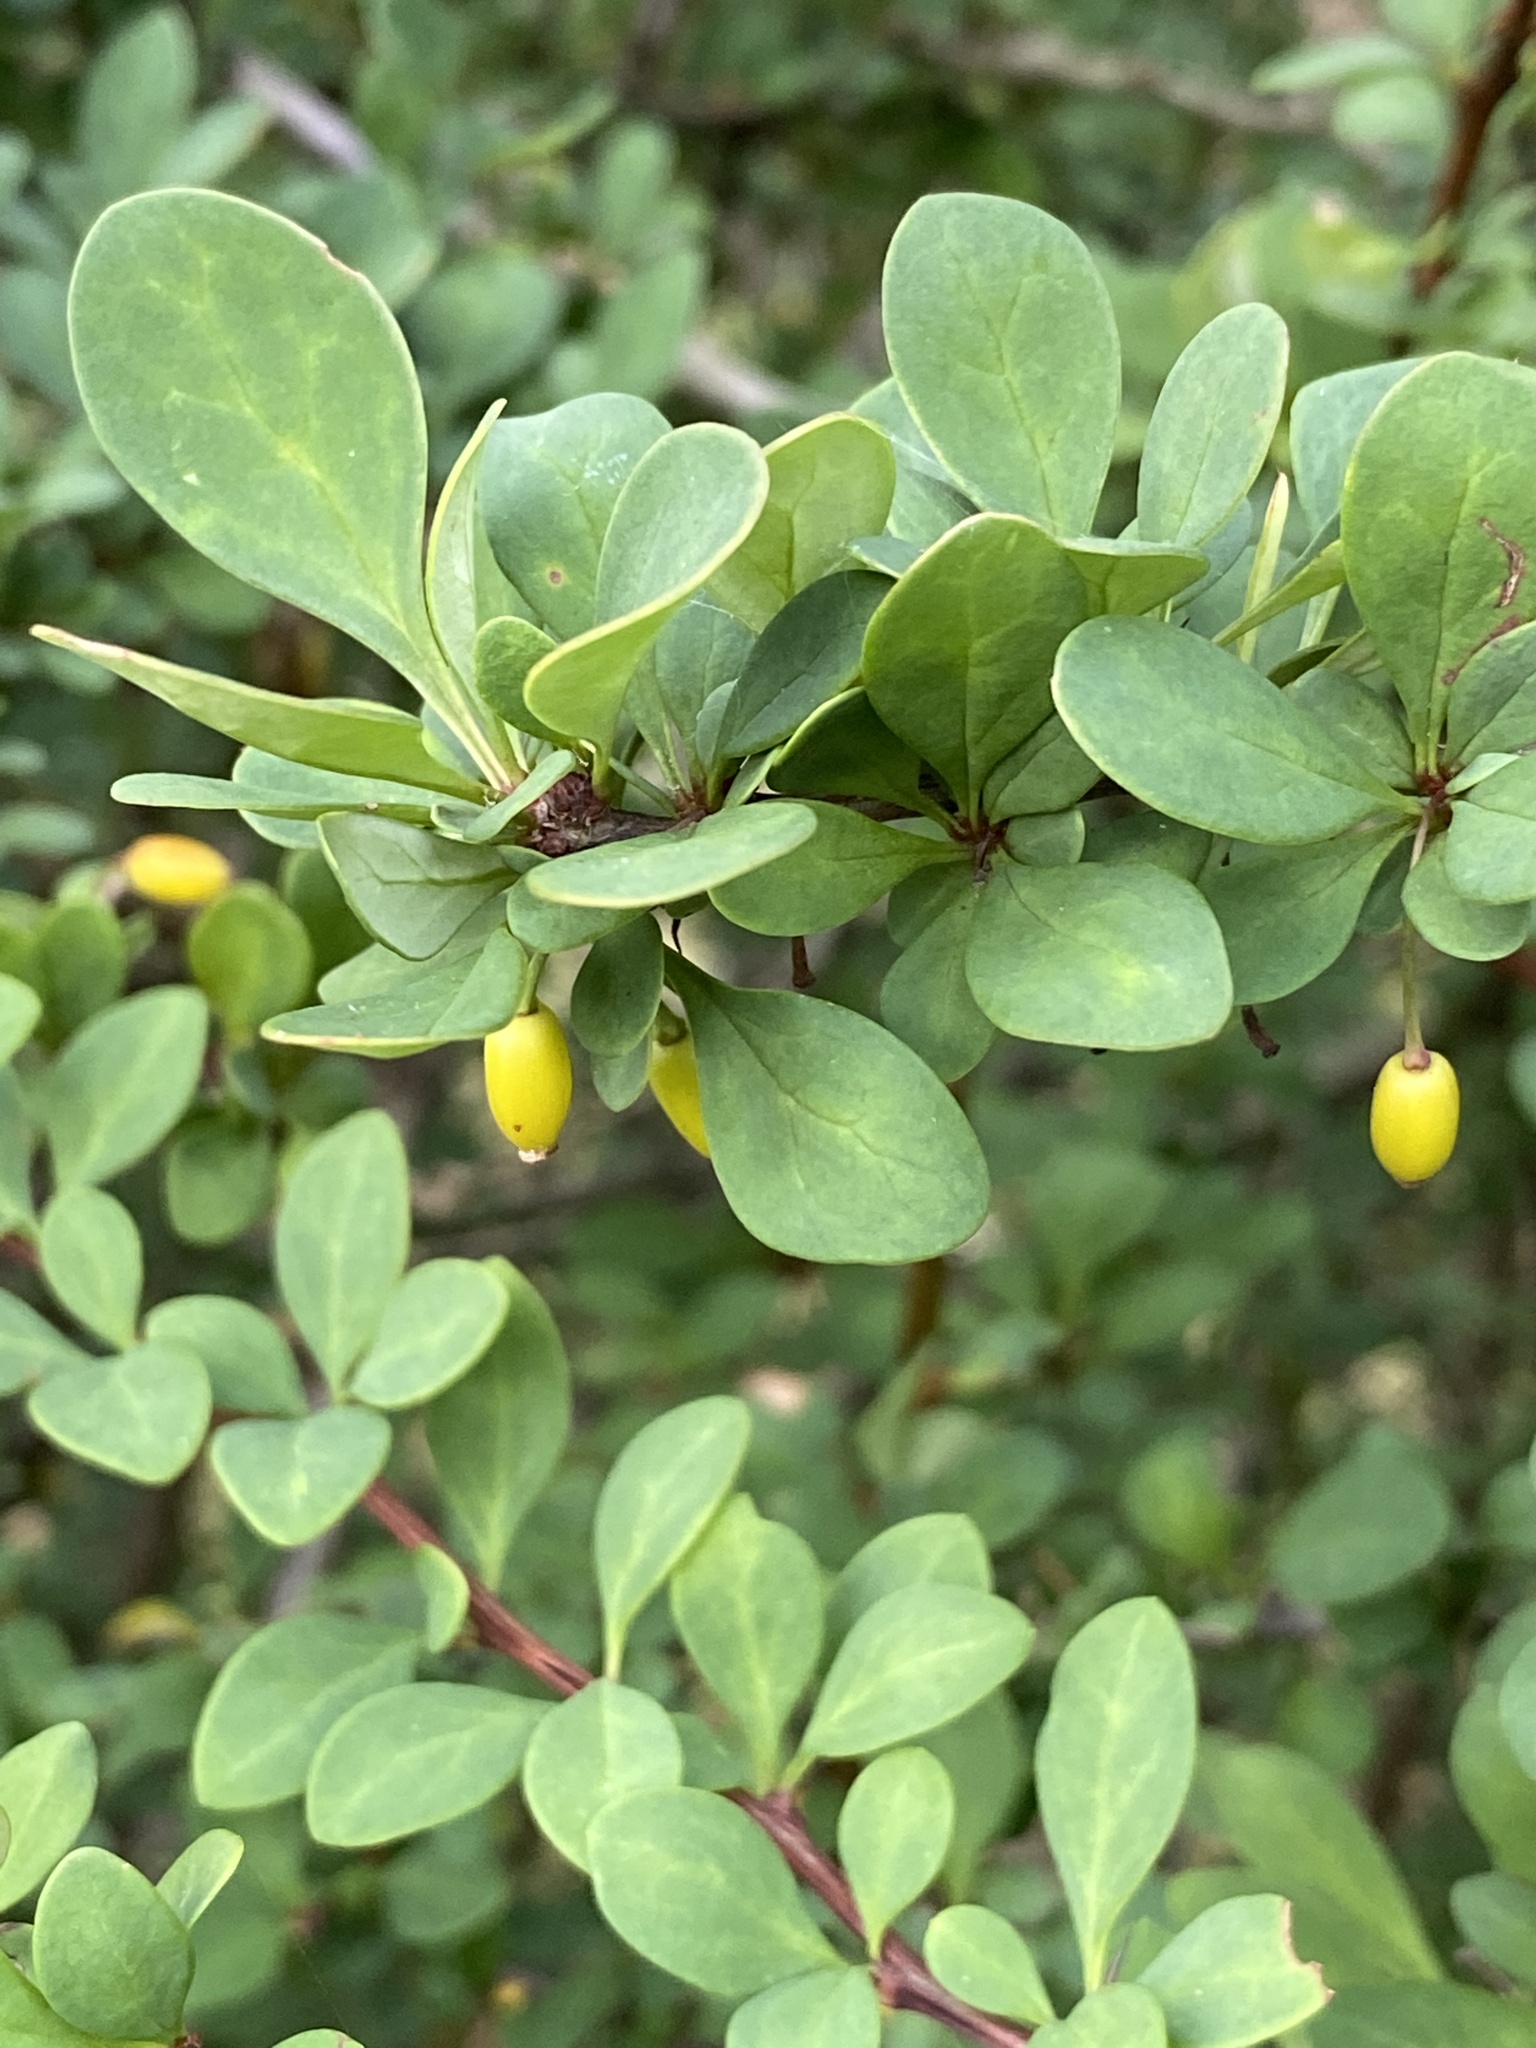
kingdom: Plantae
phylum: Tracheophyta
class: Magnoliopsida
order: Ranunculales
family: Berberidaceae
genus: Berberis
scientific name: Berberis thunbergii
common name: Japanese barberry
